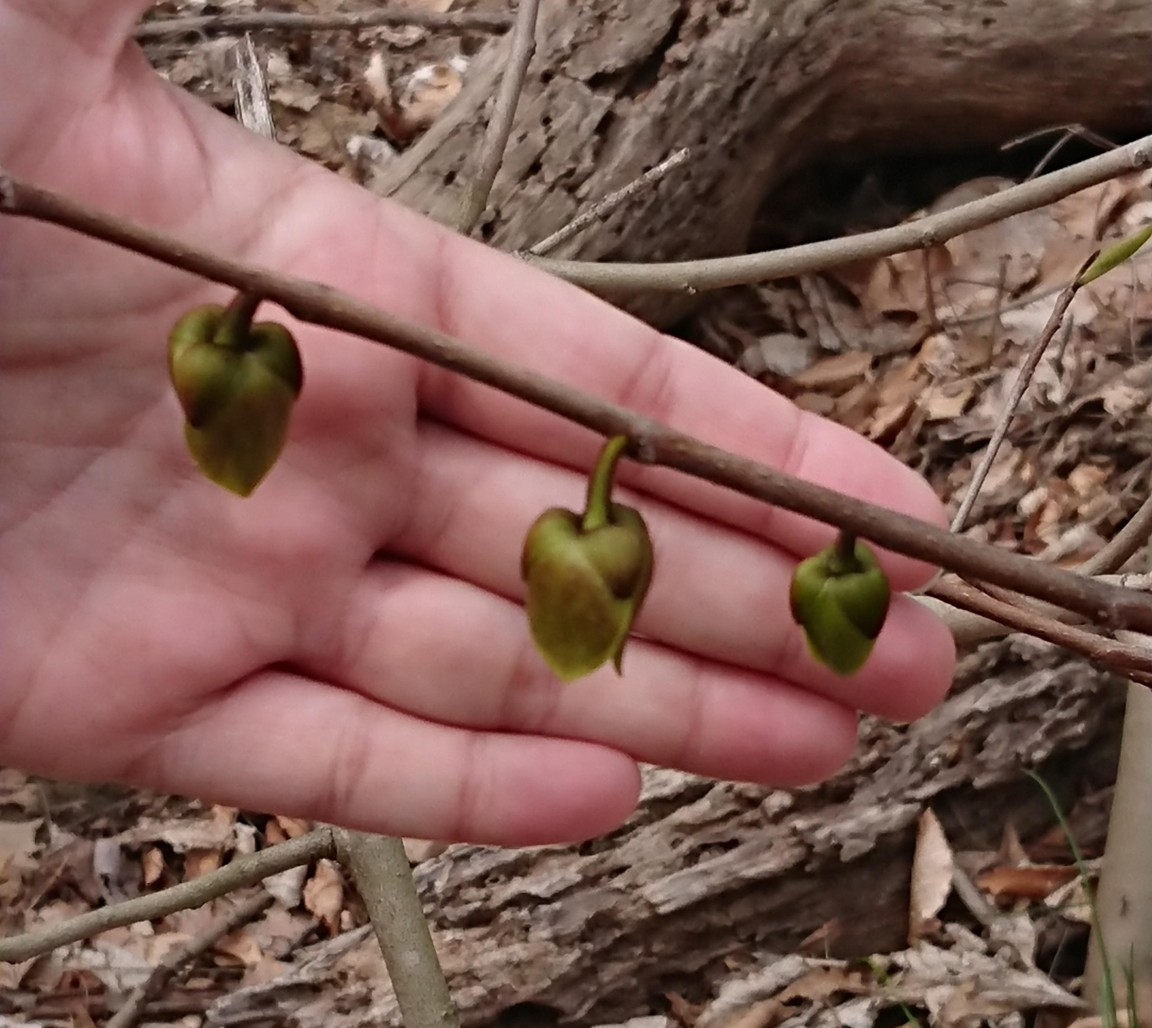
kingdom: Plantae
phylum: Tracheophyta
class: Magnoliopsida
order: Magnoliales
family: Annonaceae
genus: Asimina
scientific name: Asimina triloba
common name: Dog-banana
